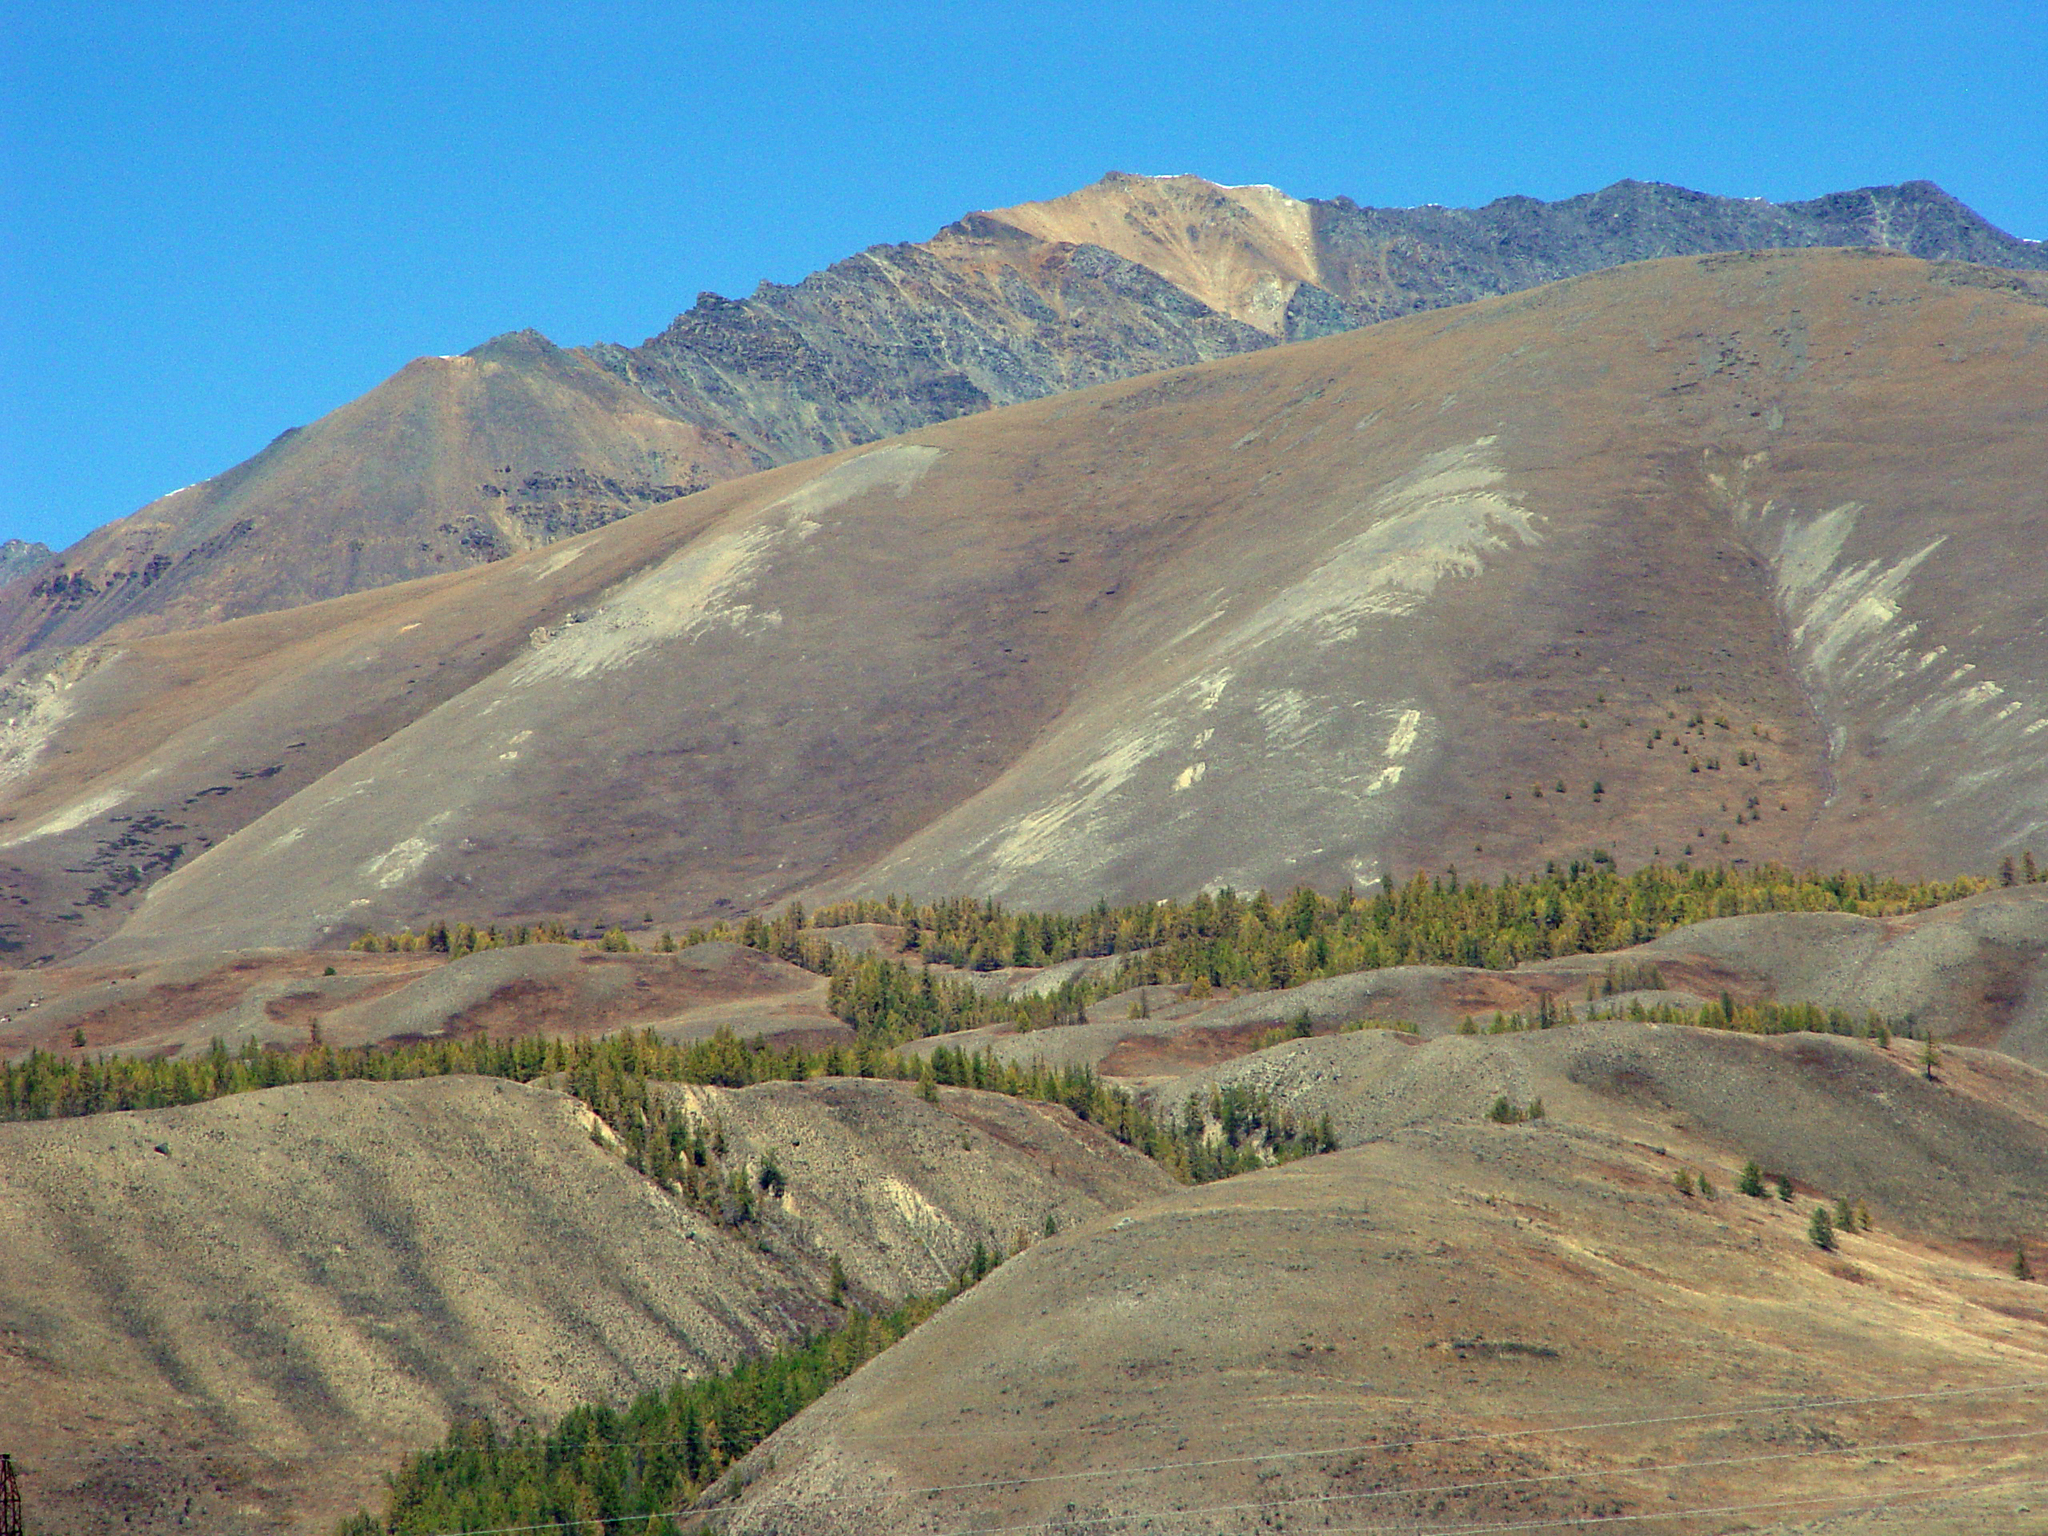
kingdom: Plantae
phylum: Tracheophyta
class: Pinopsida
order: Pinales
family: Pinaceae
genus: Larix
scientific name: Larix sibirica
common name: Siberian larch
